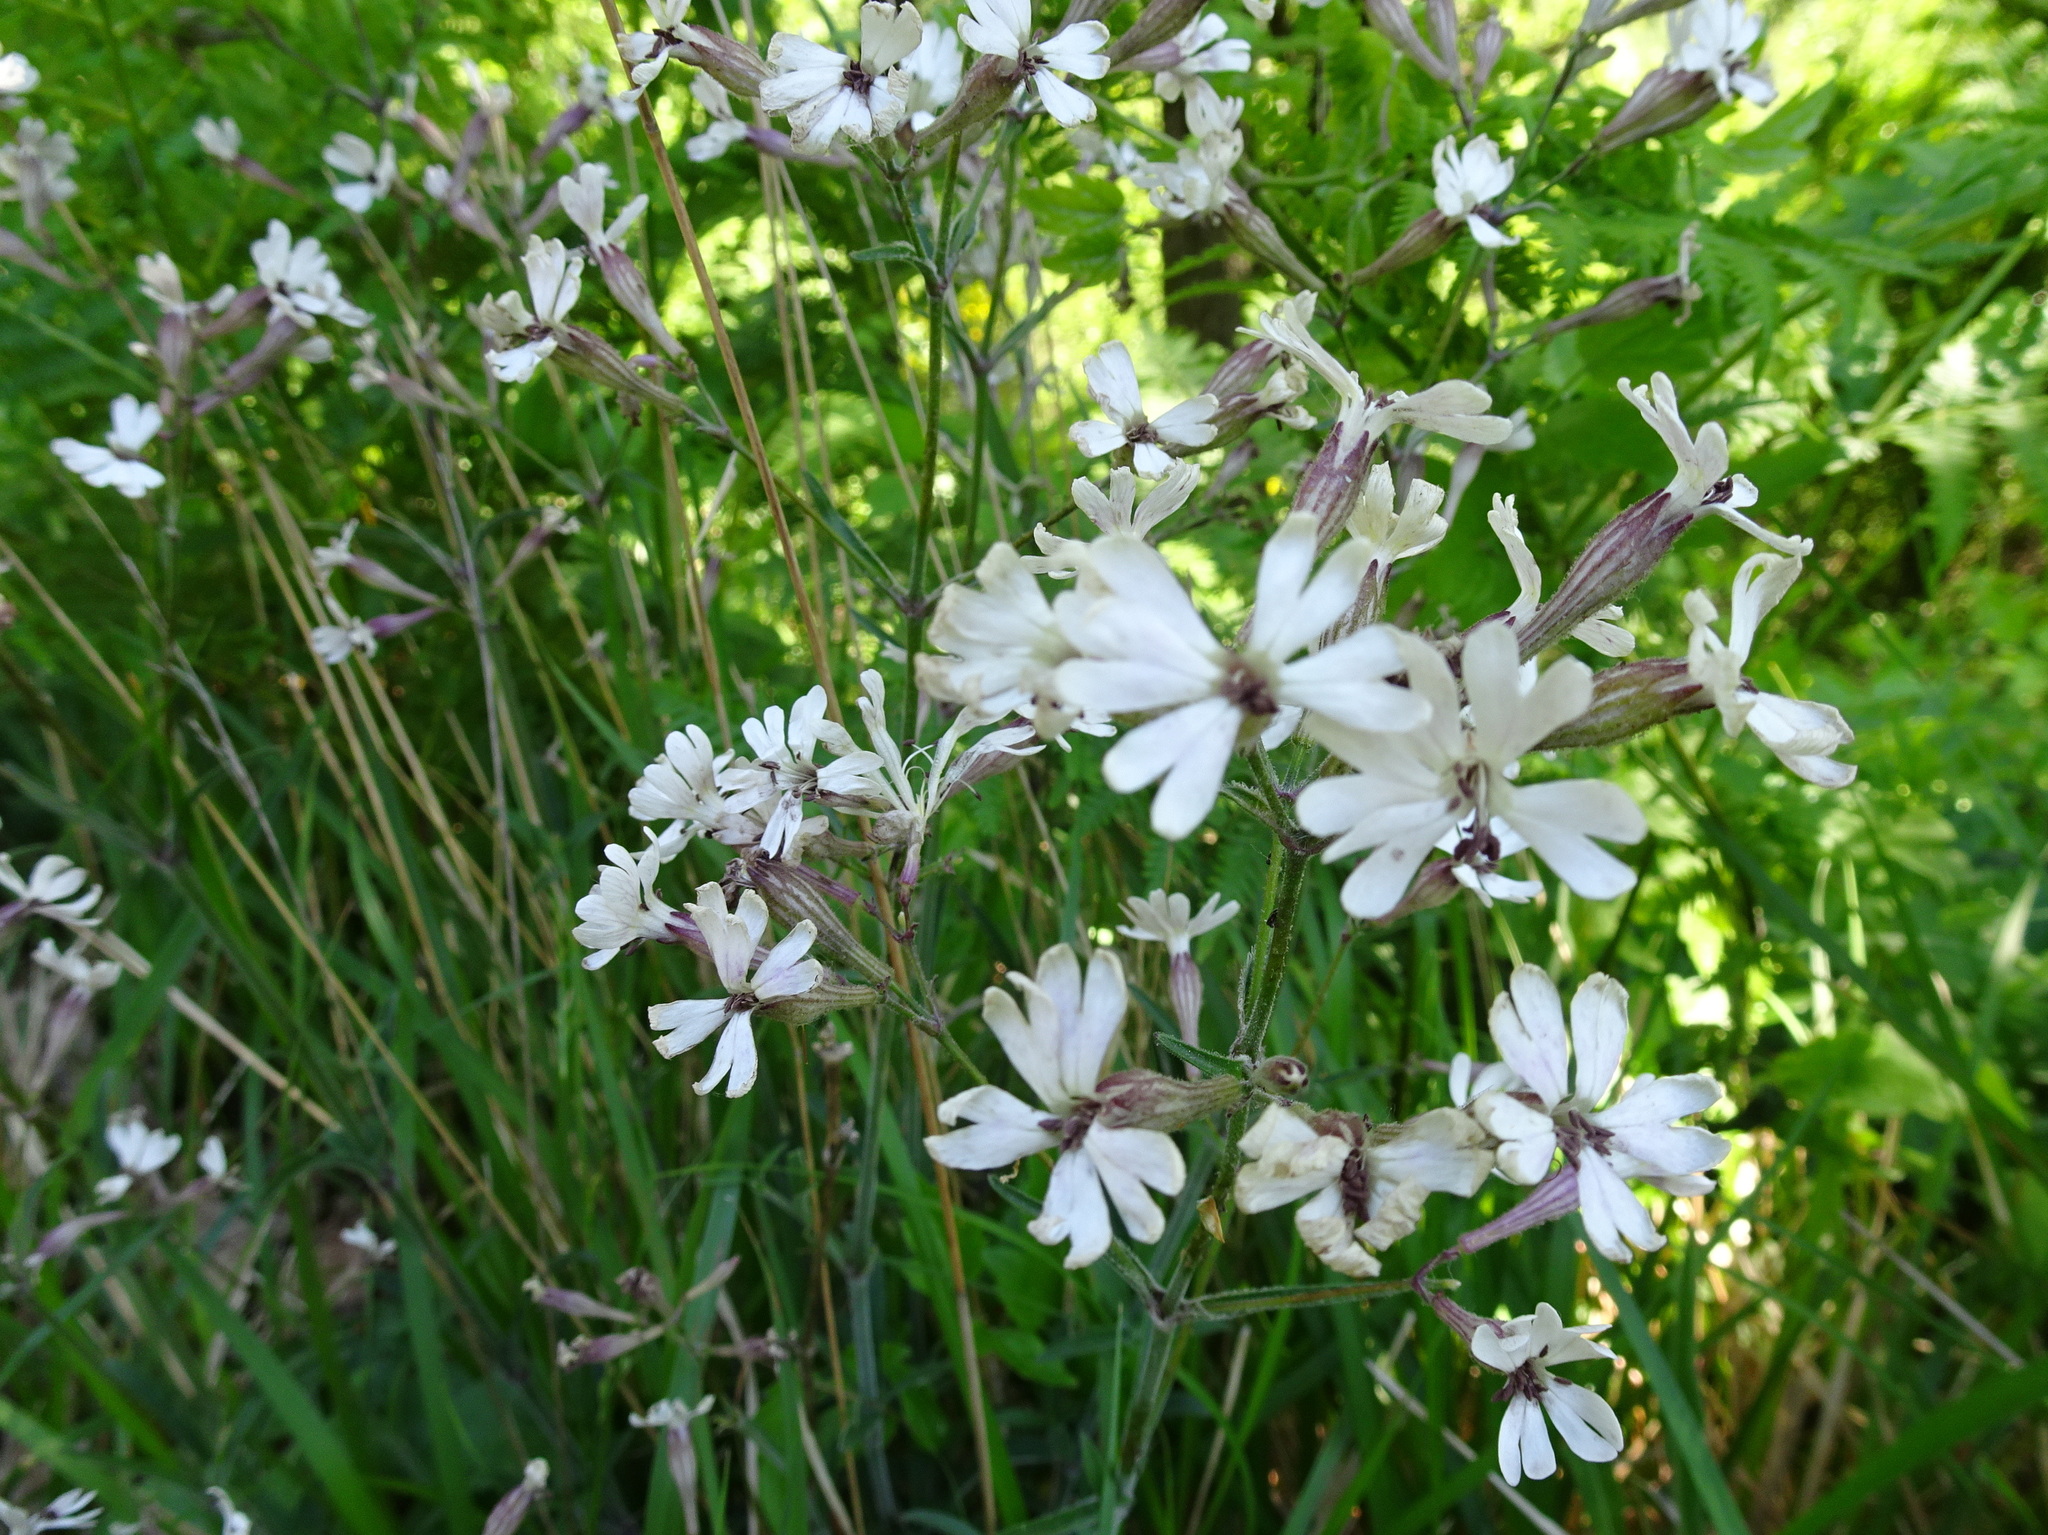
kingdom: Plantae
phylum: Tracheophyta
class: Magnoliopsida
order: Caryophyllales
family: Caryophyllaceae
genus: Silene
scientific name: Silene italica
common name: Italian catchfly
